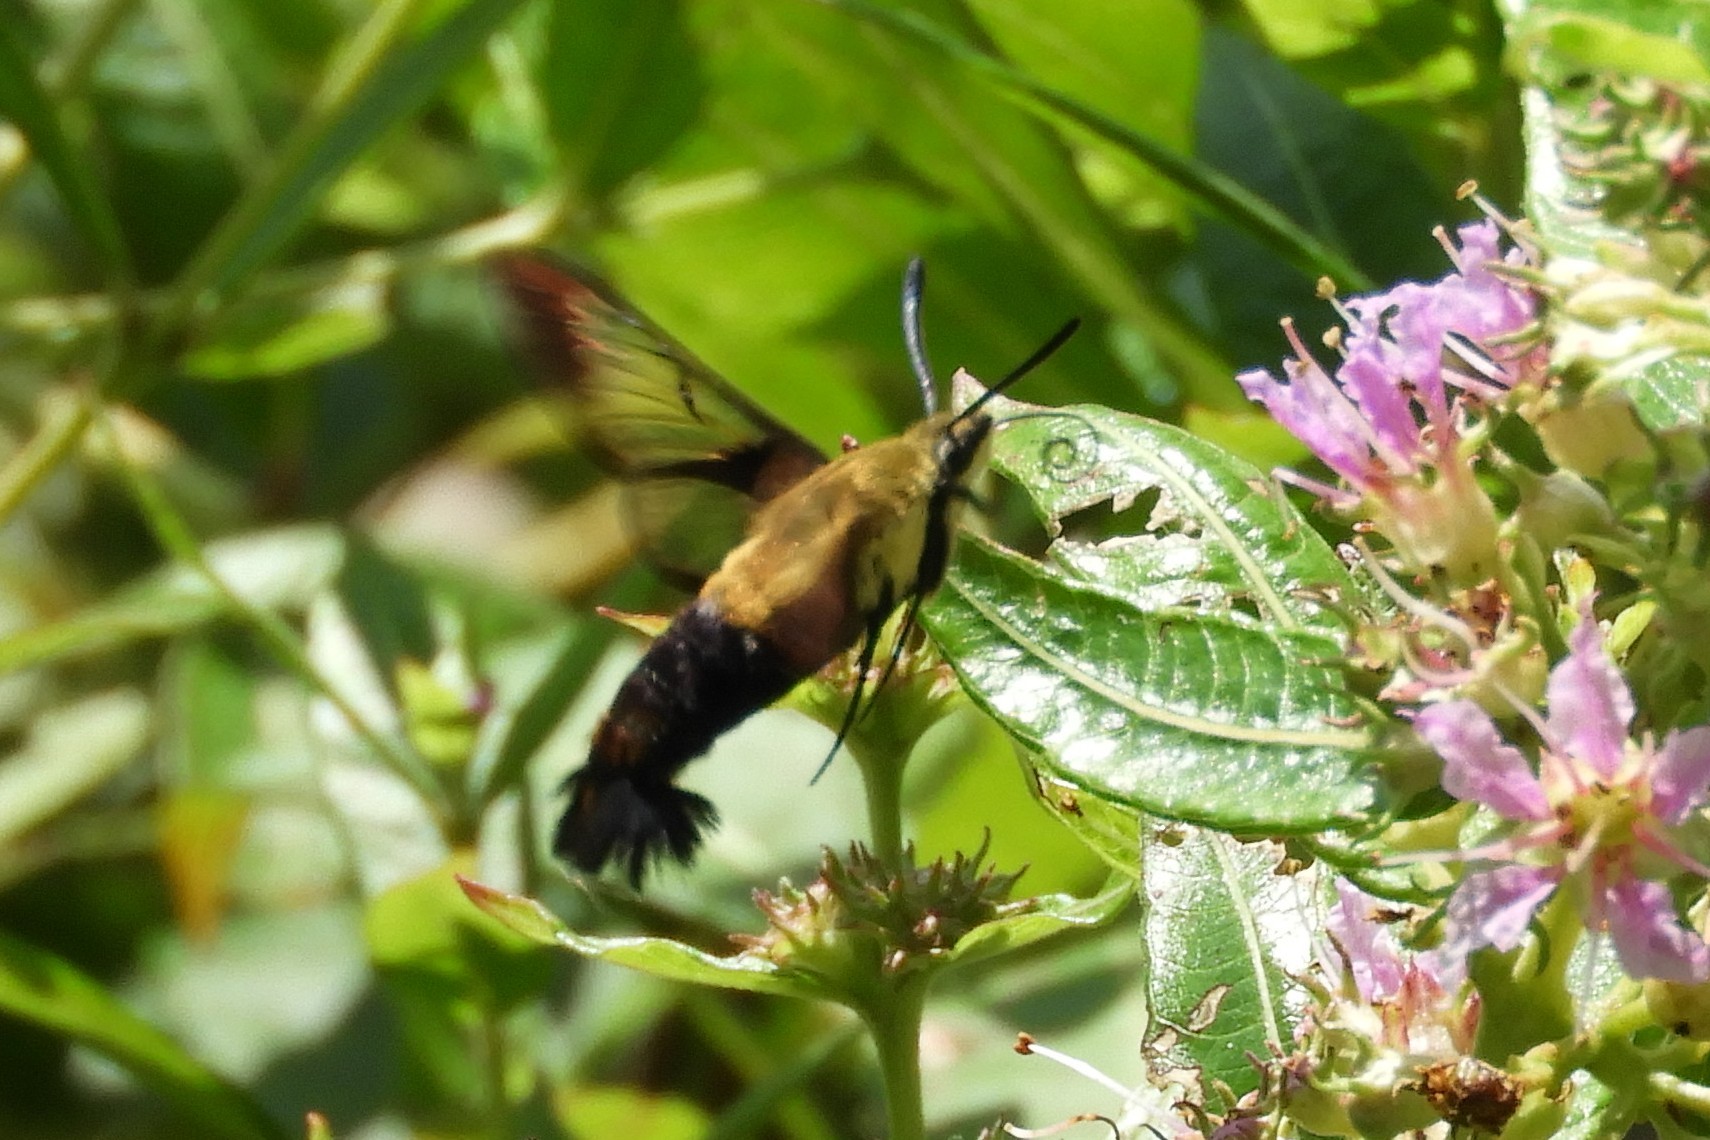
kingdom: Animalia
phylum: Arthropoda
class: Insecta
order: Lepidoptera
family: Sphingidae
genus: Hemaris
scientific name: Hemaris diffinis
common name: Bumblebee moth
